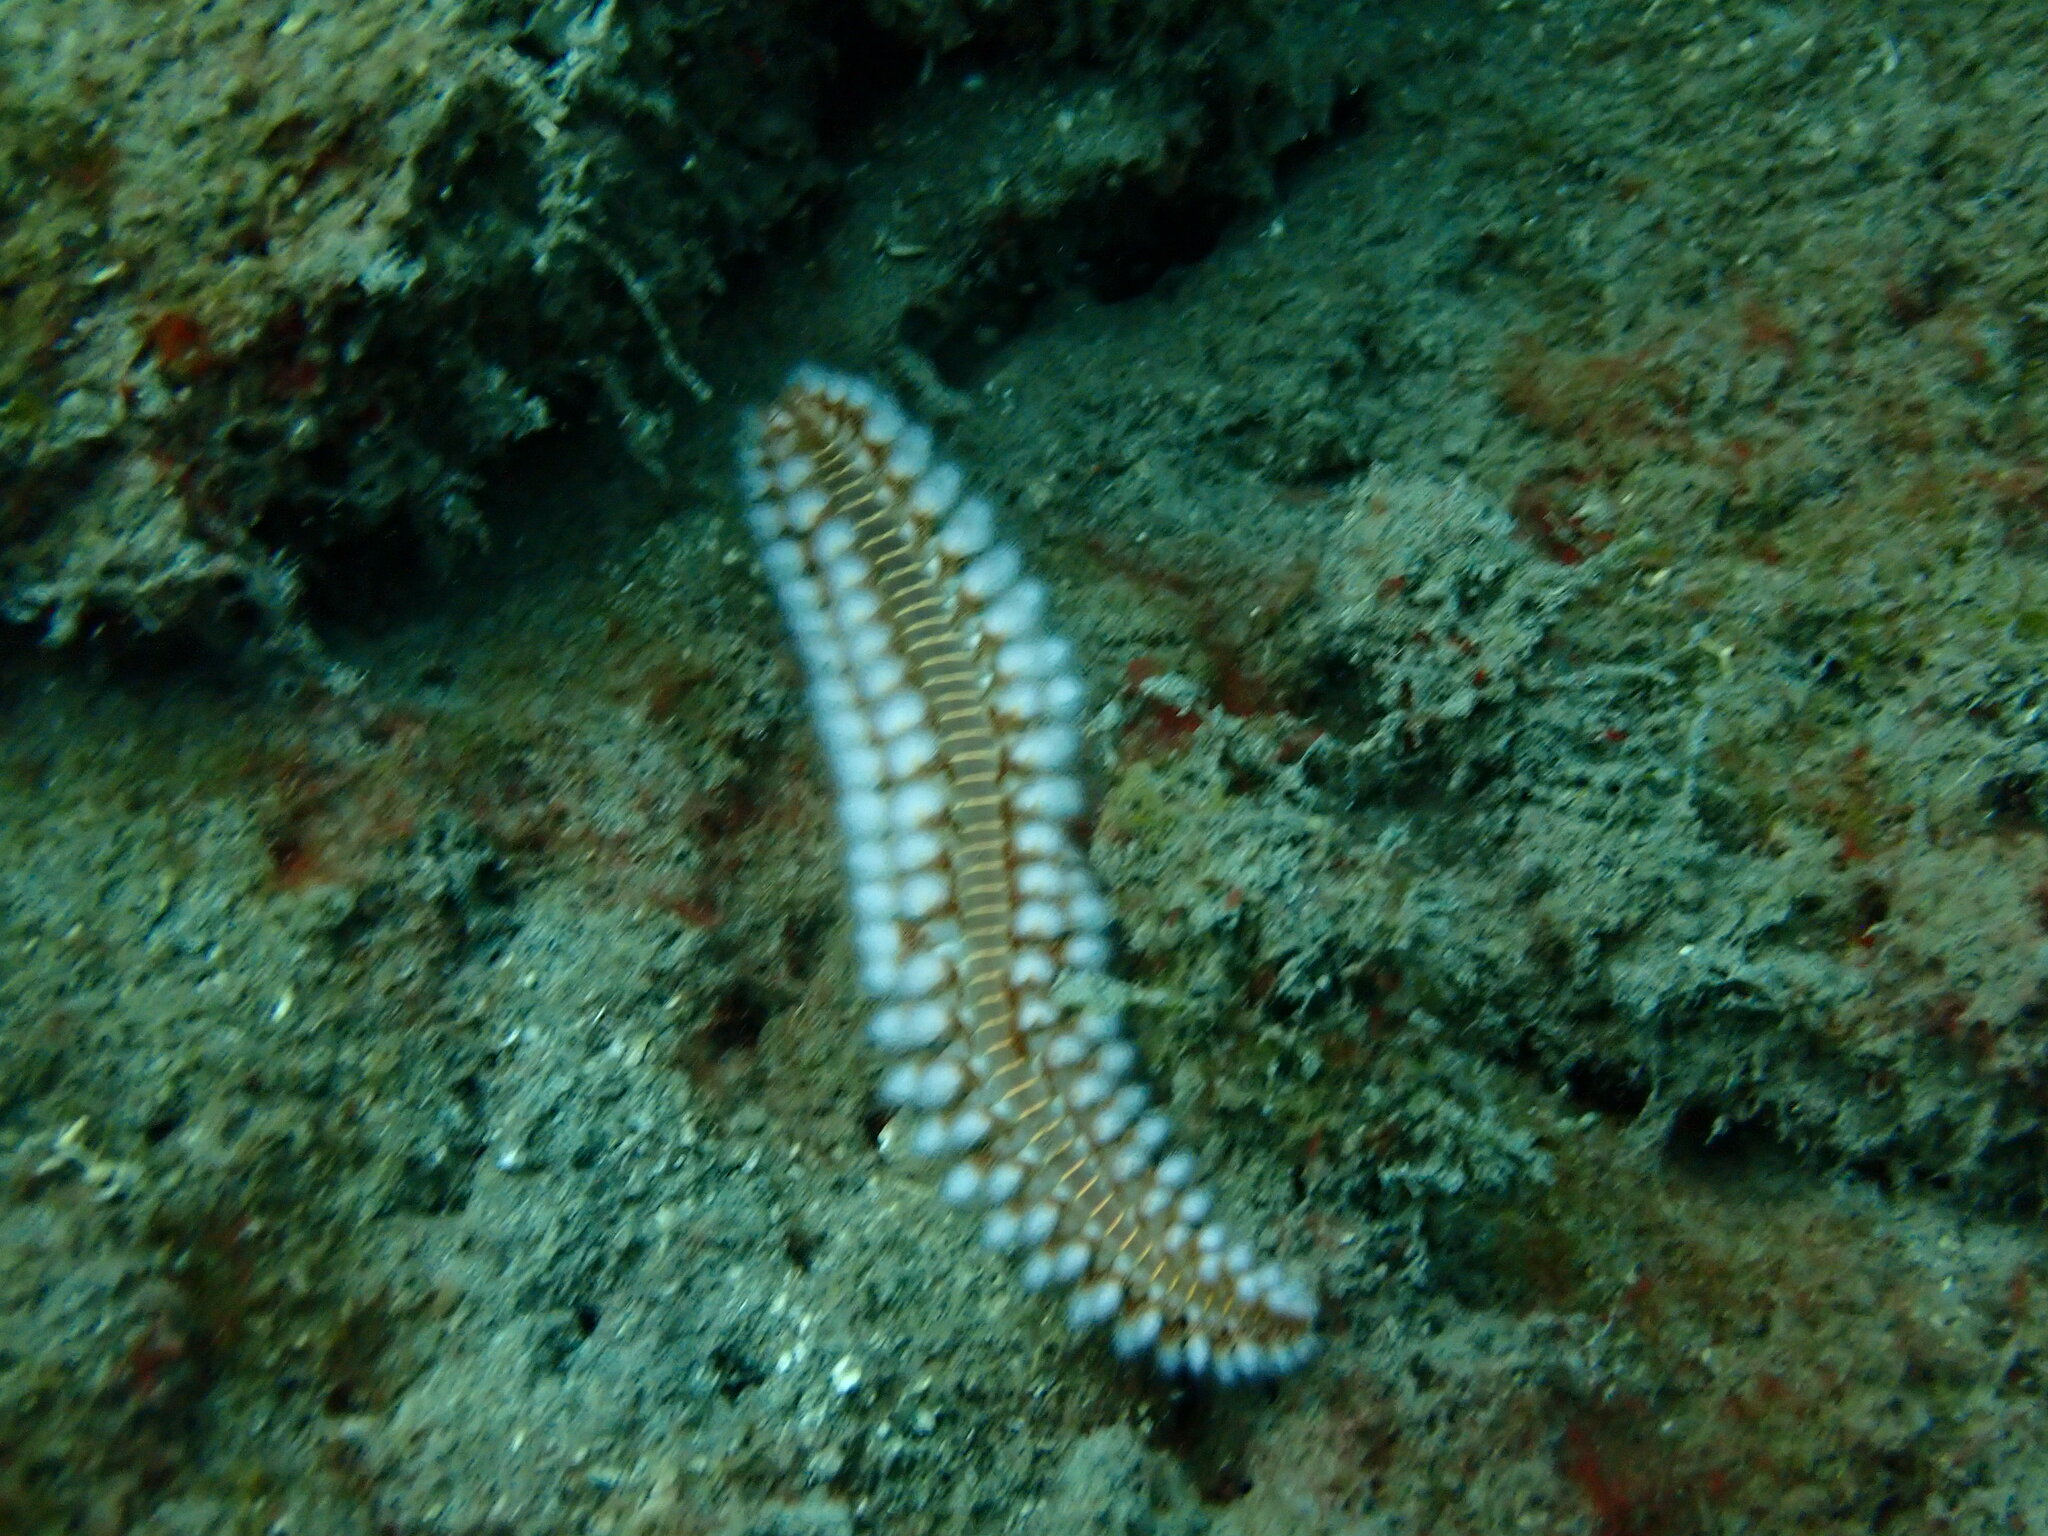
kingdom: Animalia
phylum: Annelida
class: Polychaeta
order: Amphinomida
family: Amphinomidae
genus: Hermodice
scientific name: Hermodice carunculata
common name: Bearded fireworm
